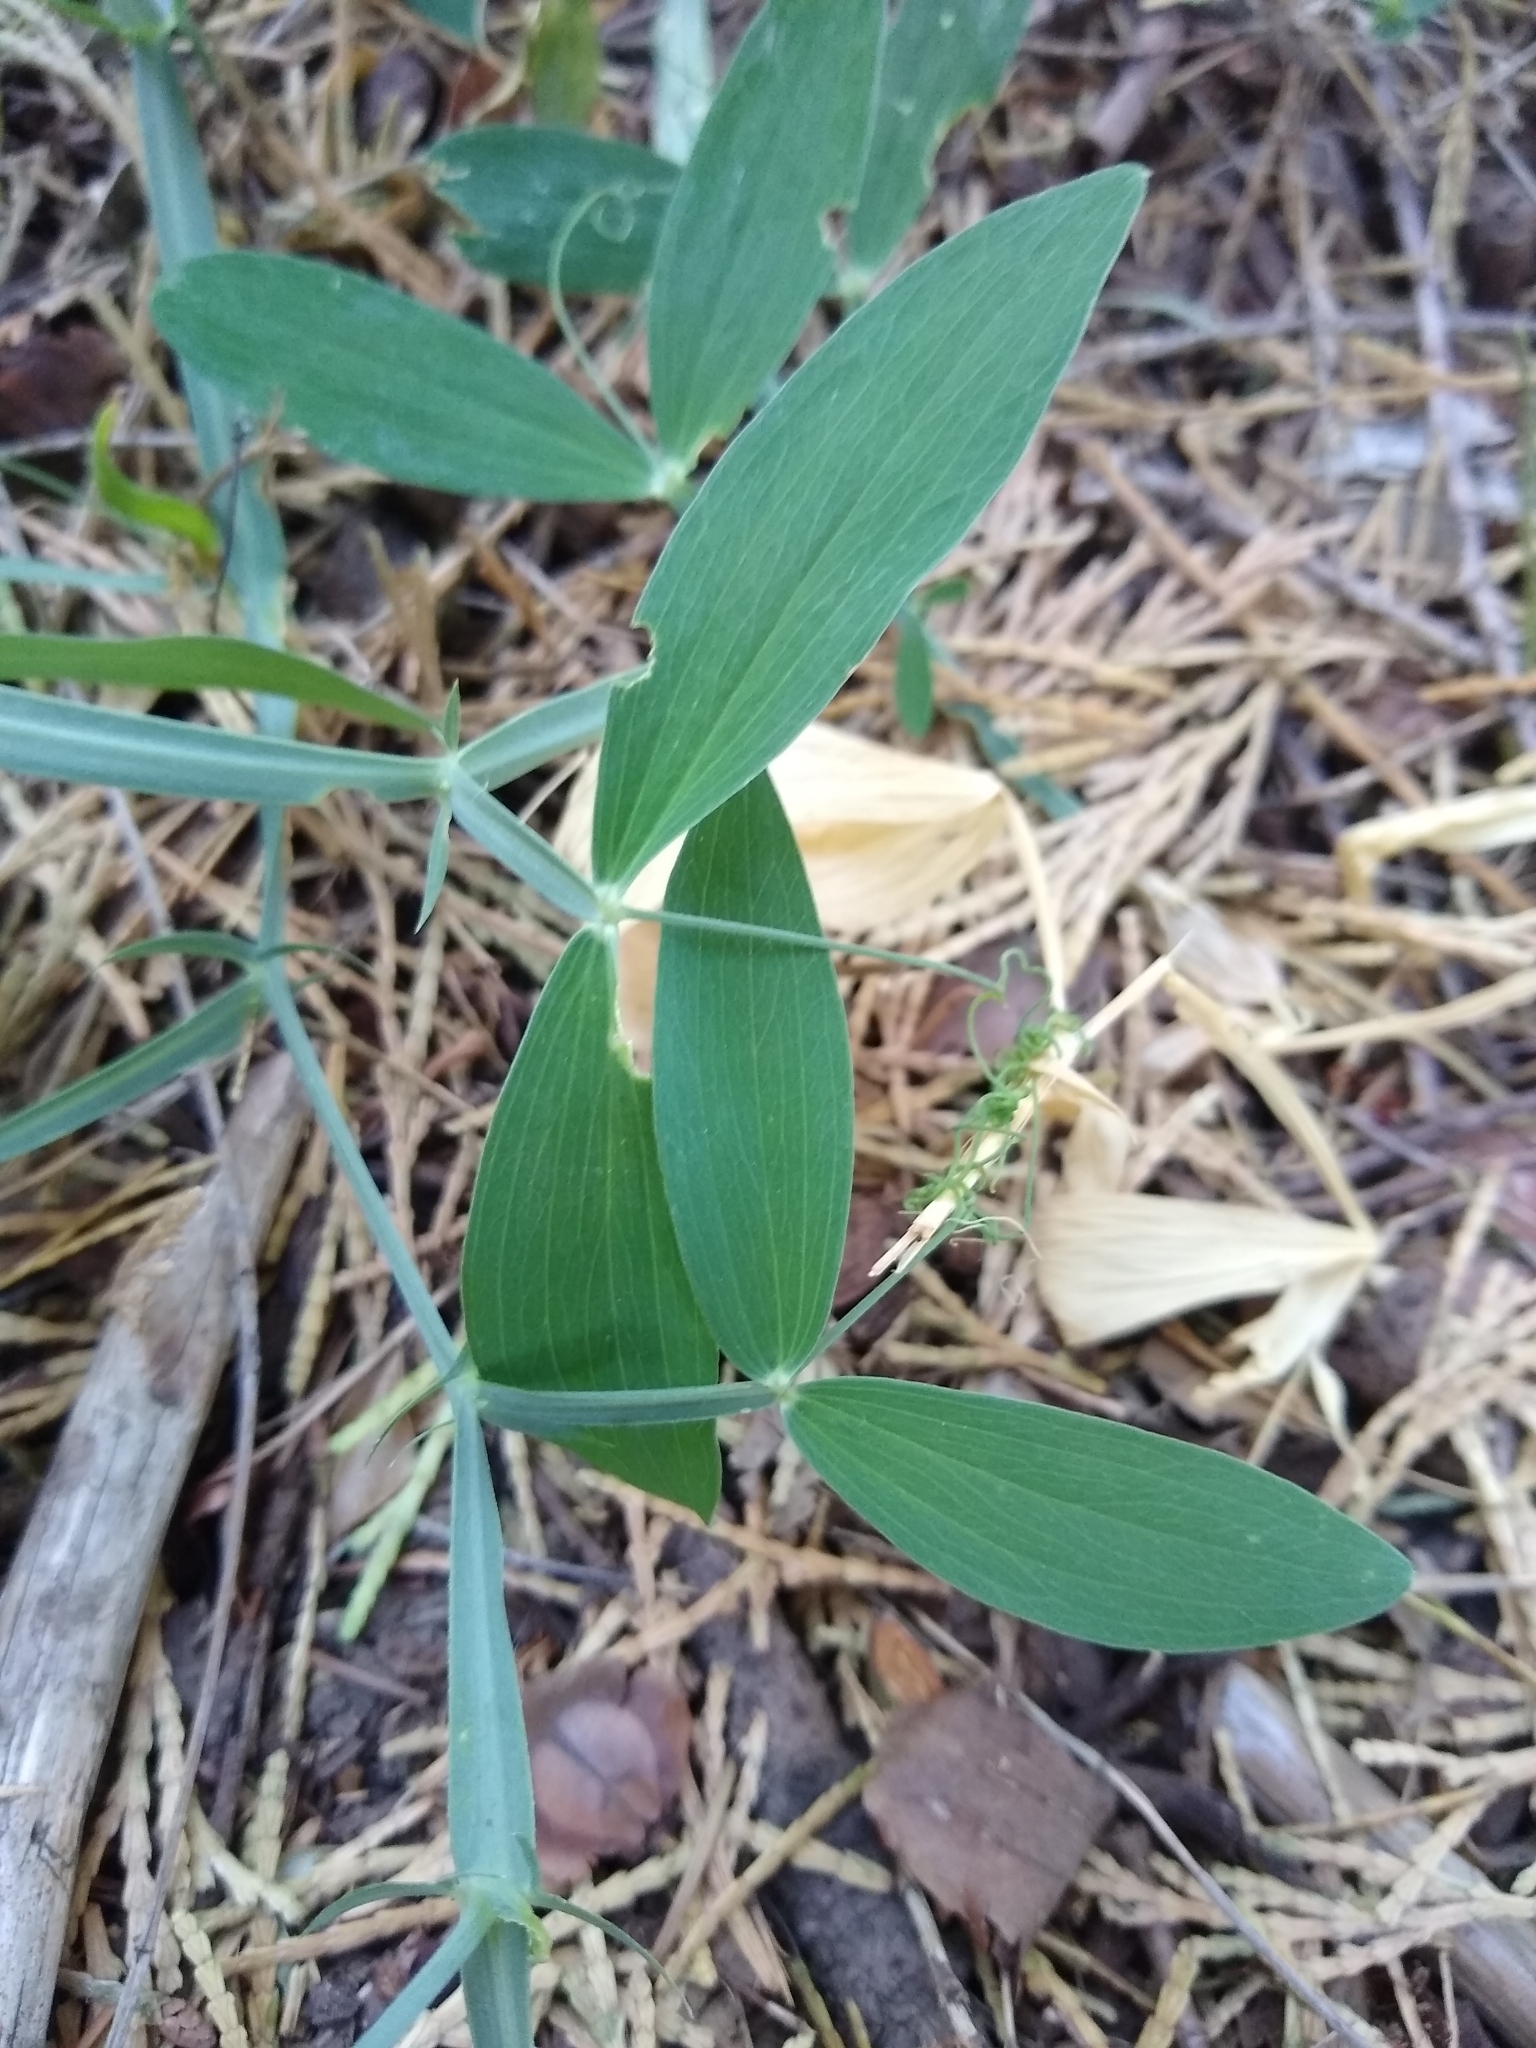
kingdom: Plantae
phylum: Tracheophyta
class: Magnoliopsida
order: Fabales
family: Fabaceae
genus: Lathyrus
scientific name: Lathyrus latifolius
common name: Perennial pea
